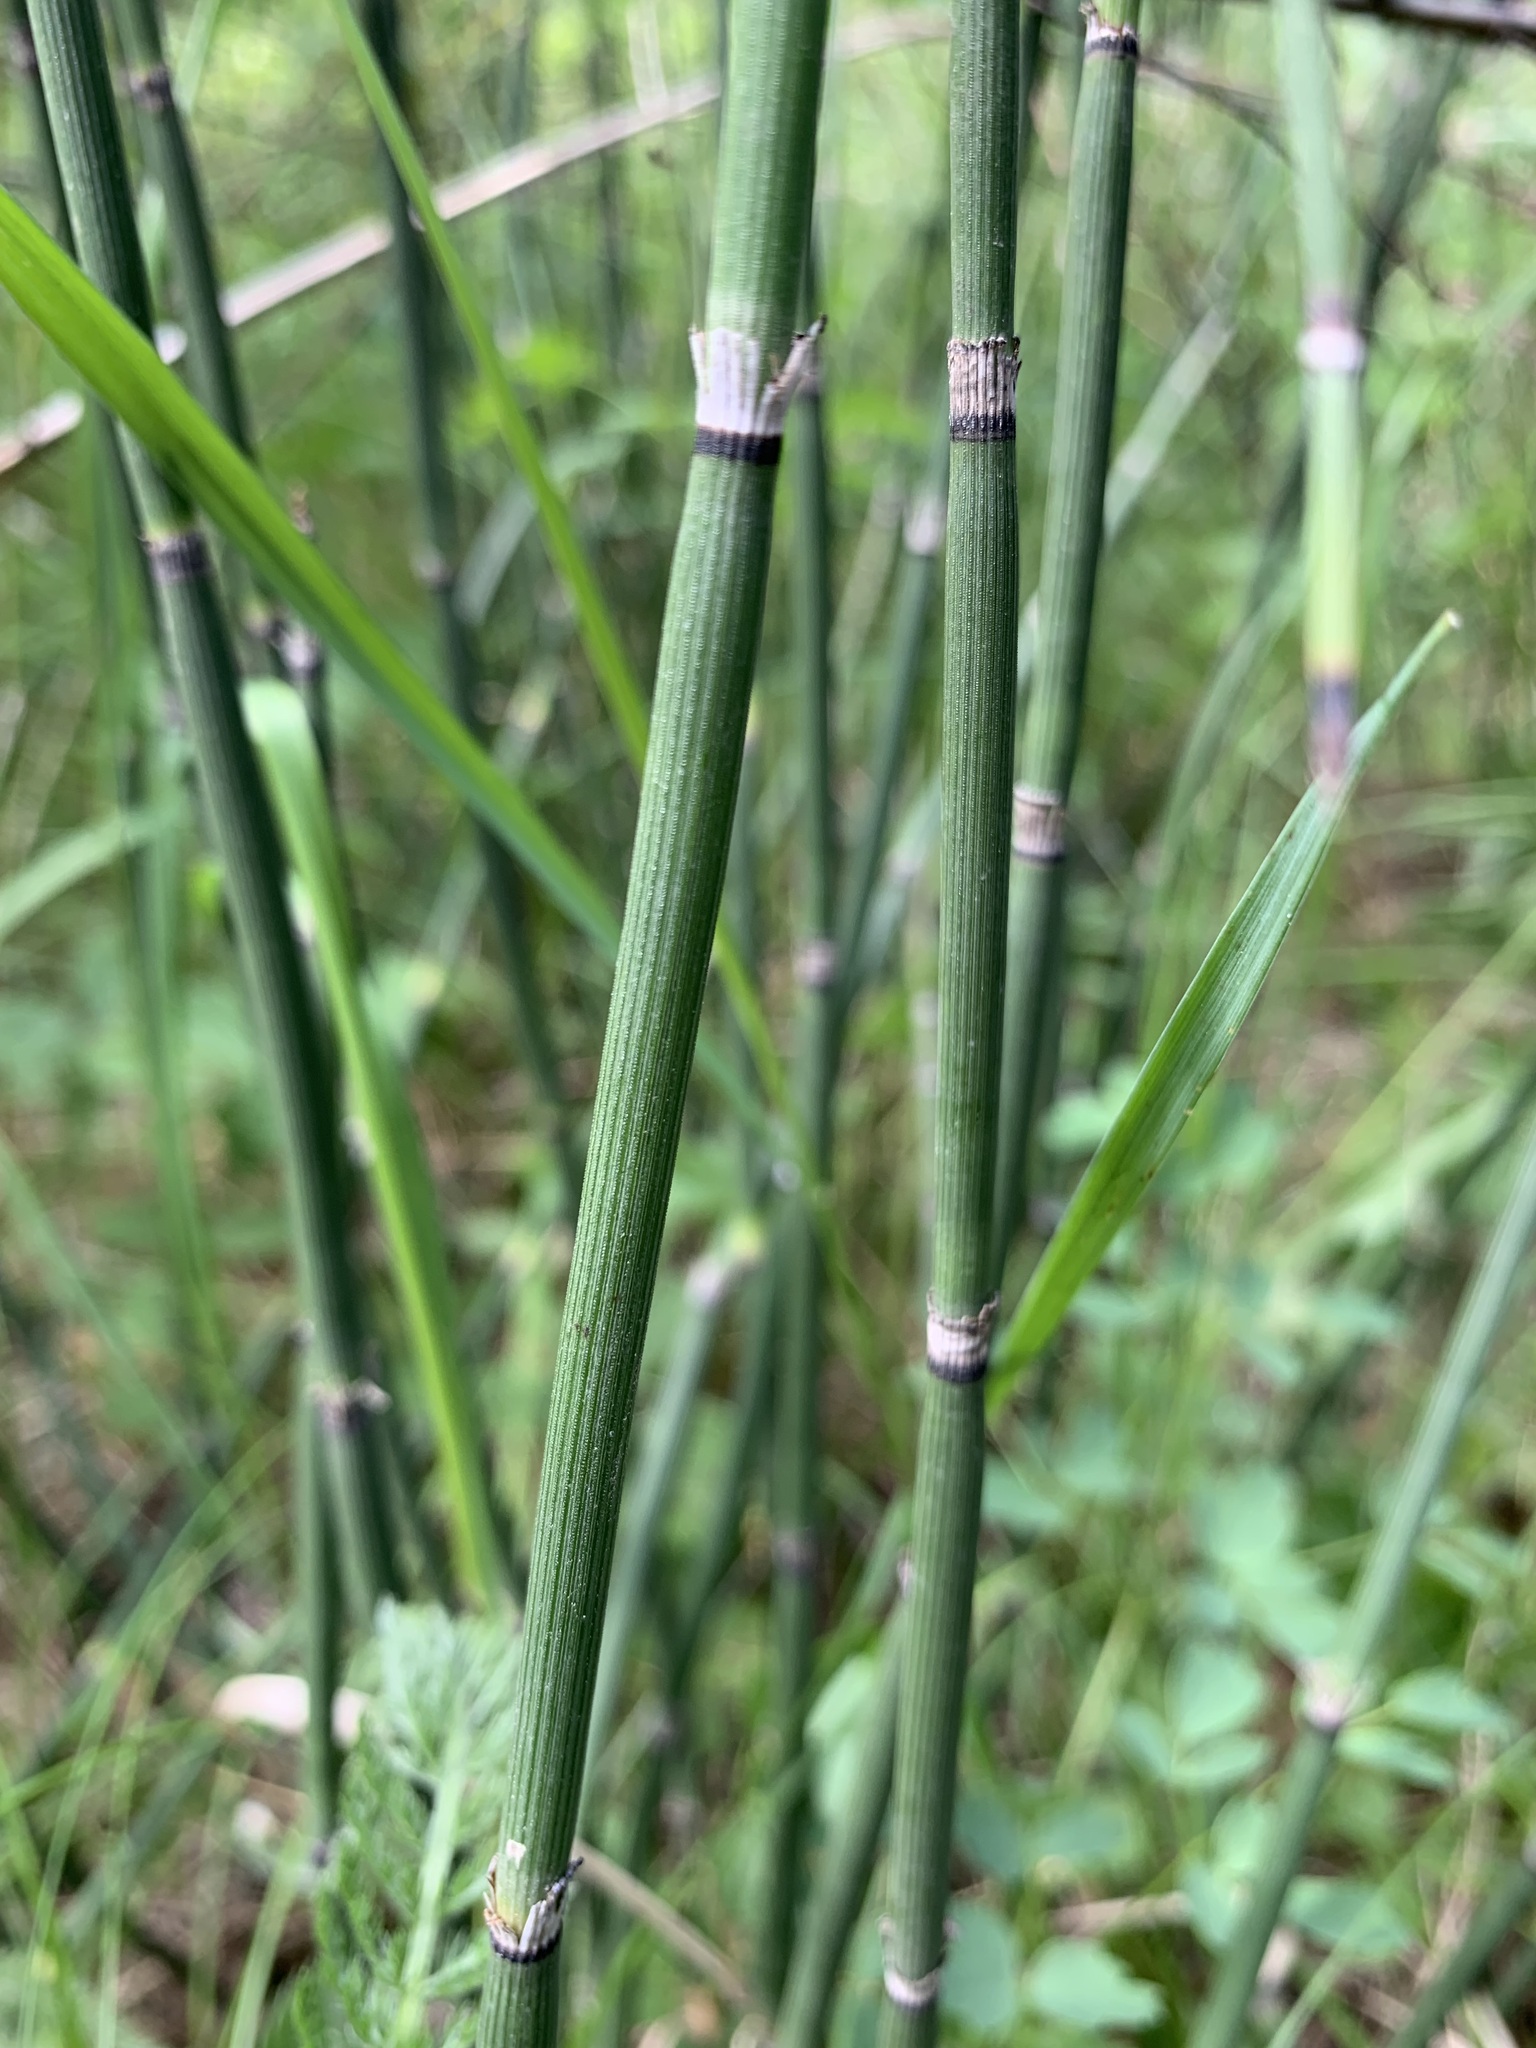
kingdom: Plantae
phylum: Tracheophyta
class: Polypodiopsida
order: Equisetales
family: Equisetaceae
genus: Equisetum
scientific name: Equisetum hyemale
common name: Rough horsetail
